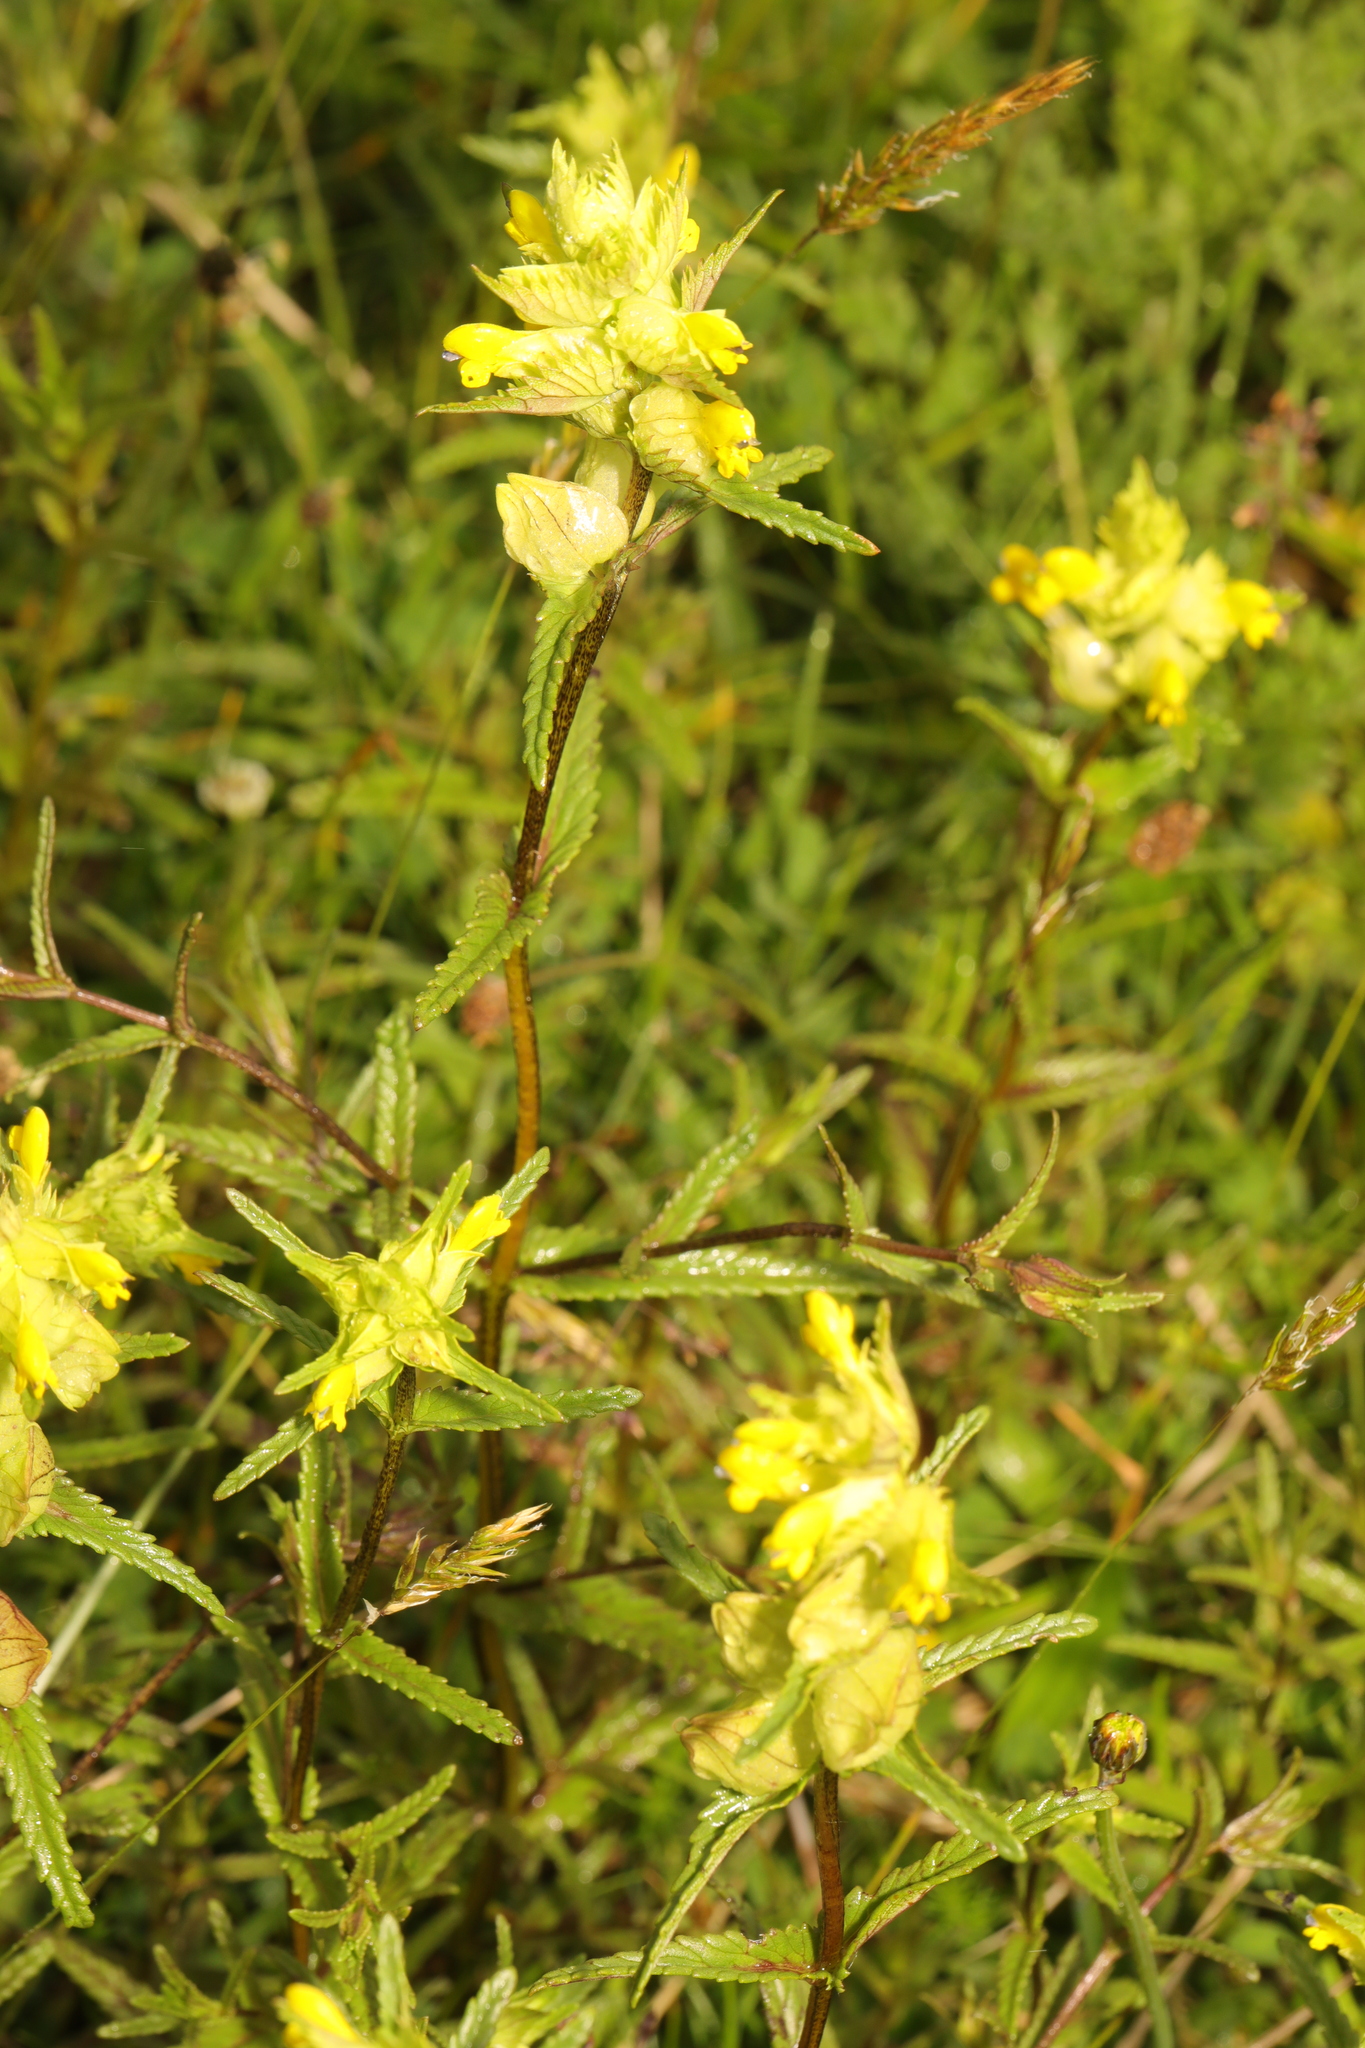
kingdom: Plantae
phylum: Tracheophyta
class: Magnoliopsida
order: Lamiales
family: Orobanchaceae
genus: Rhinanthus
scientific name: Rhinanthus minor
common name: Yellow-rattle
